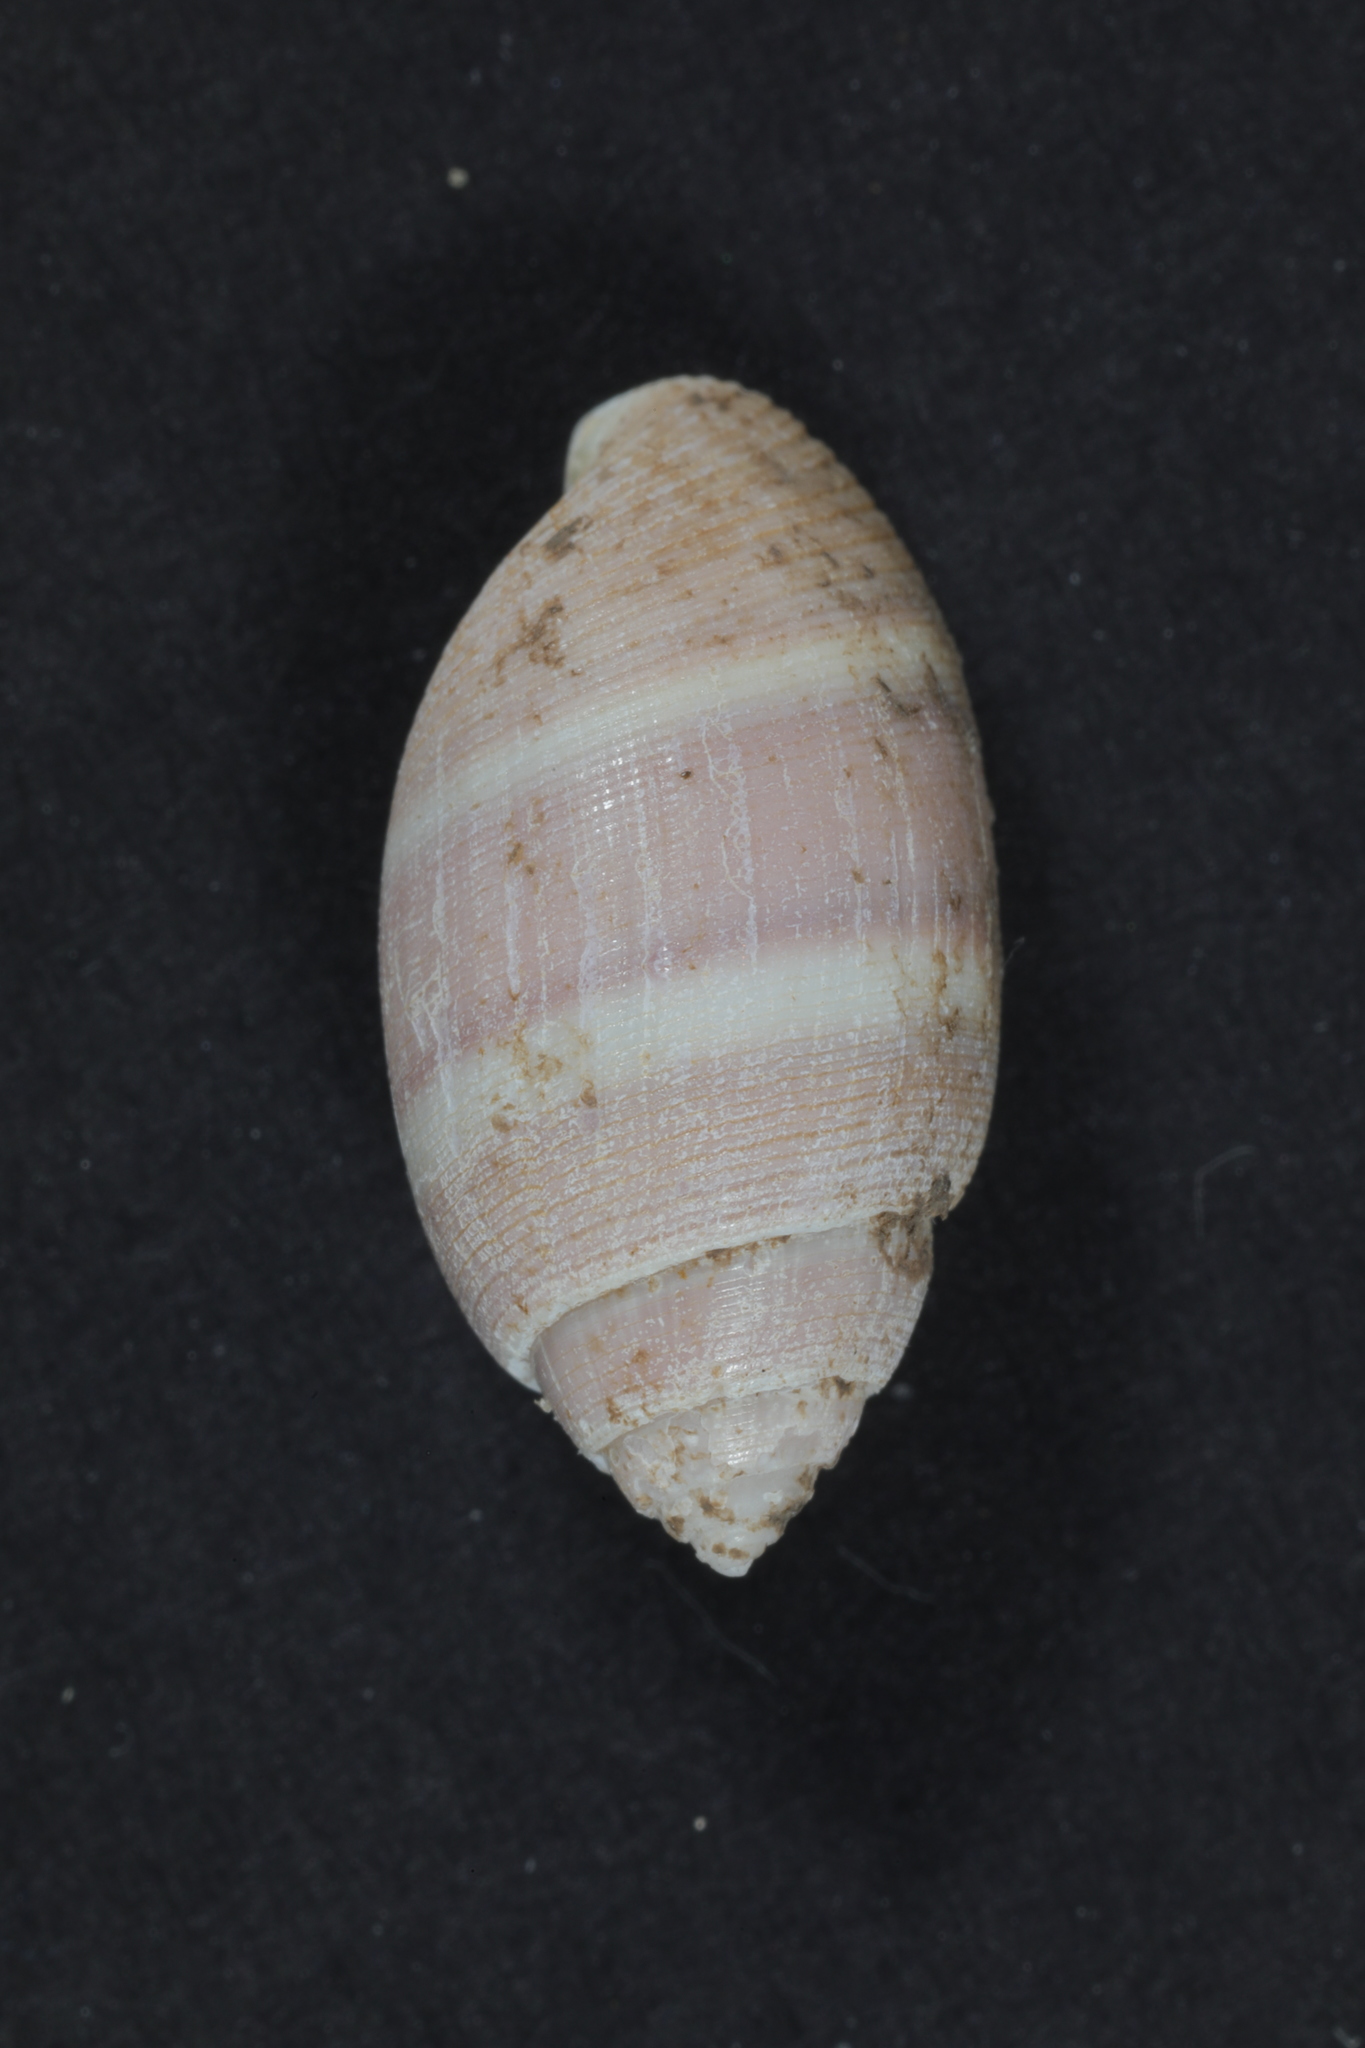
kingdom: Animalia
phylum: Mollusca
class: Gastropoda
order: Cephalaspidea
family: Acteonidae
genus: Acteon
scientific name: Acteon tornatilis
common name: European acteon
